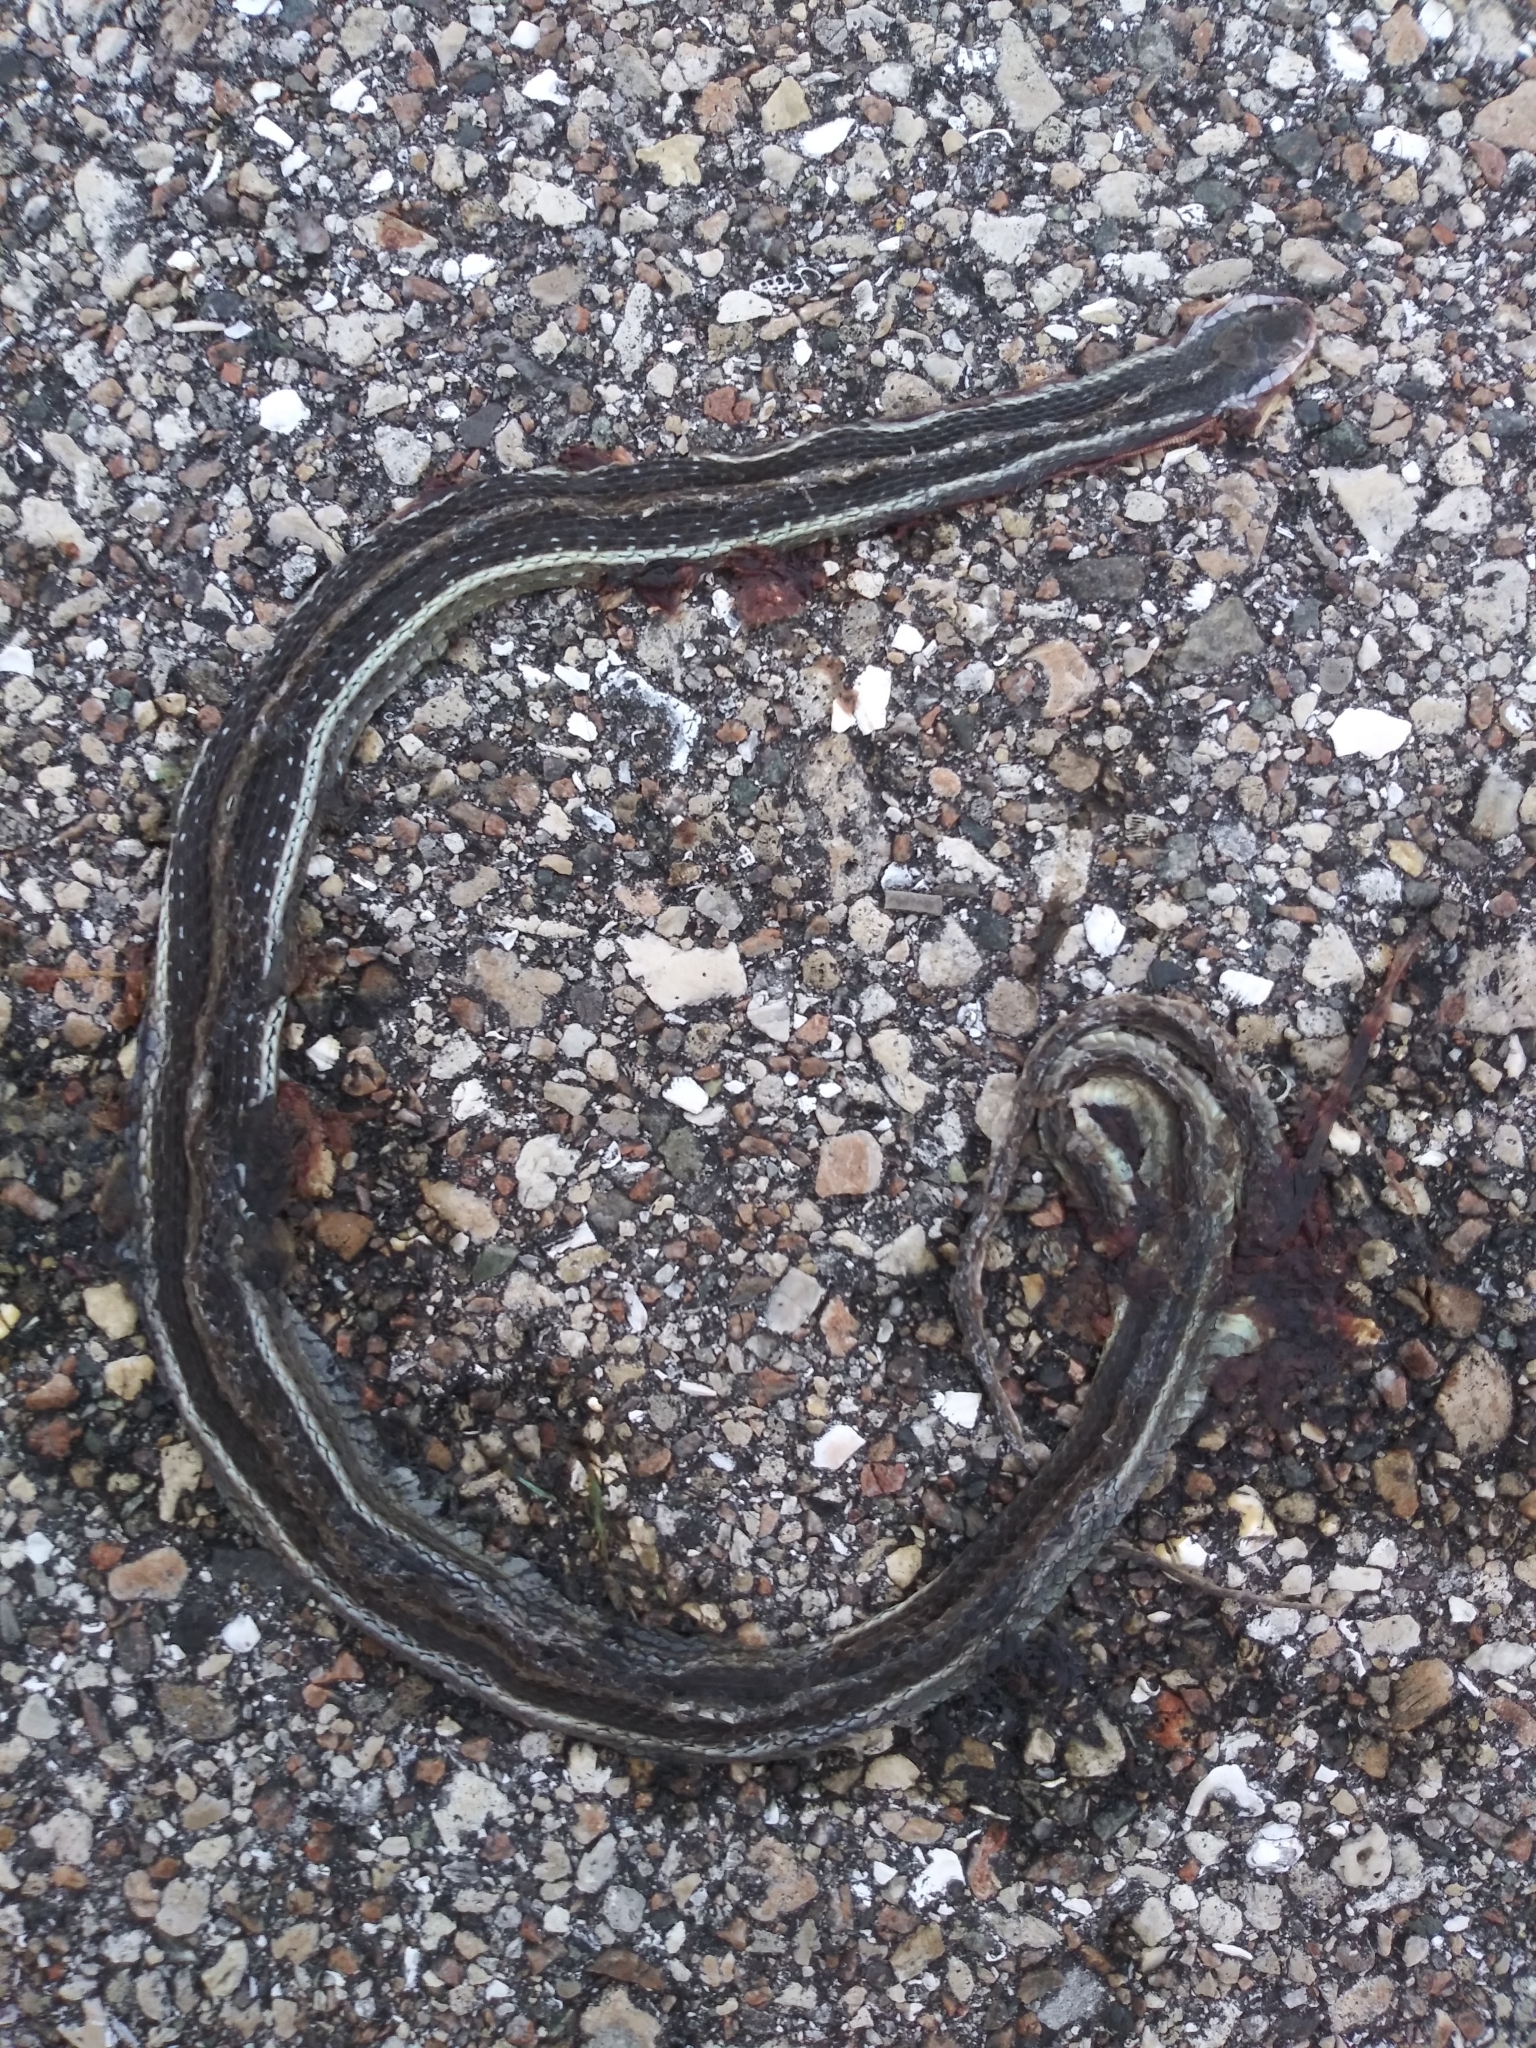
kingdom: Animalia
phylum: Chordata
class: Squamata
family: Colubridae
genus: Thamnophis
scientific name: Thamnophis saurita
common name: Eastern ribbonsnake
